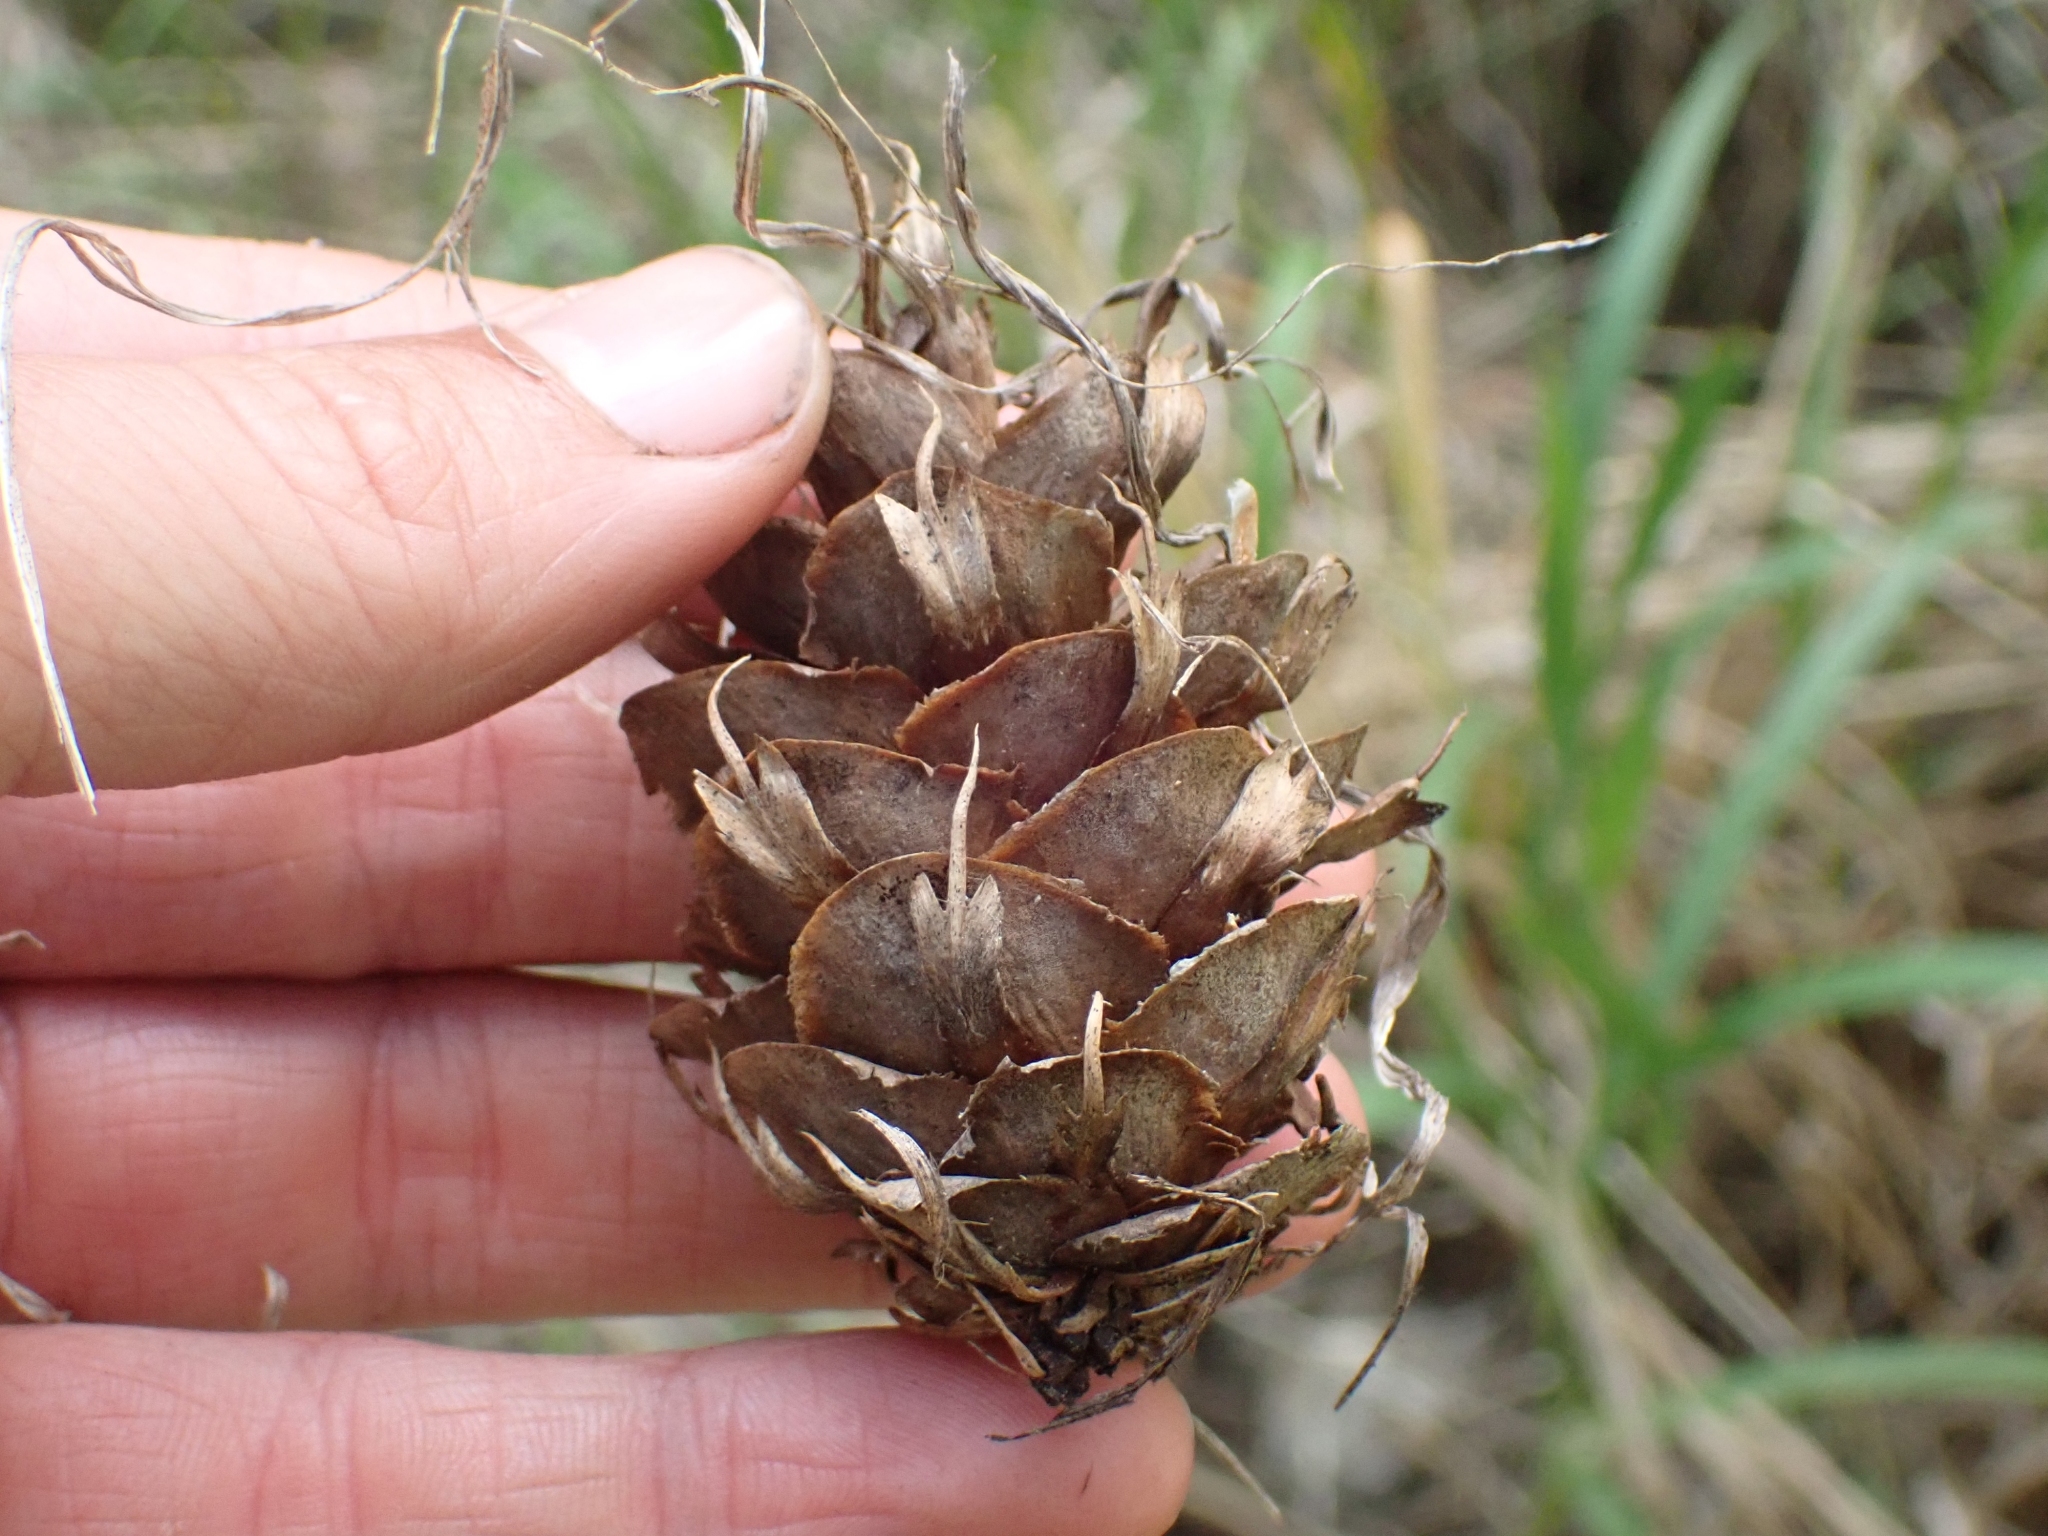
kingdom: Plantae
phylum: Tracheophyta
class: Pinopsida
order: Pinales
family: Pinaceae
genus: Pseudotsuga
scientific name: Pseudotsuga menziesii
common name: Douglas fir
